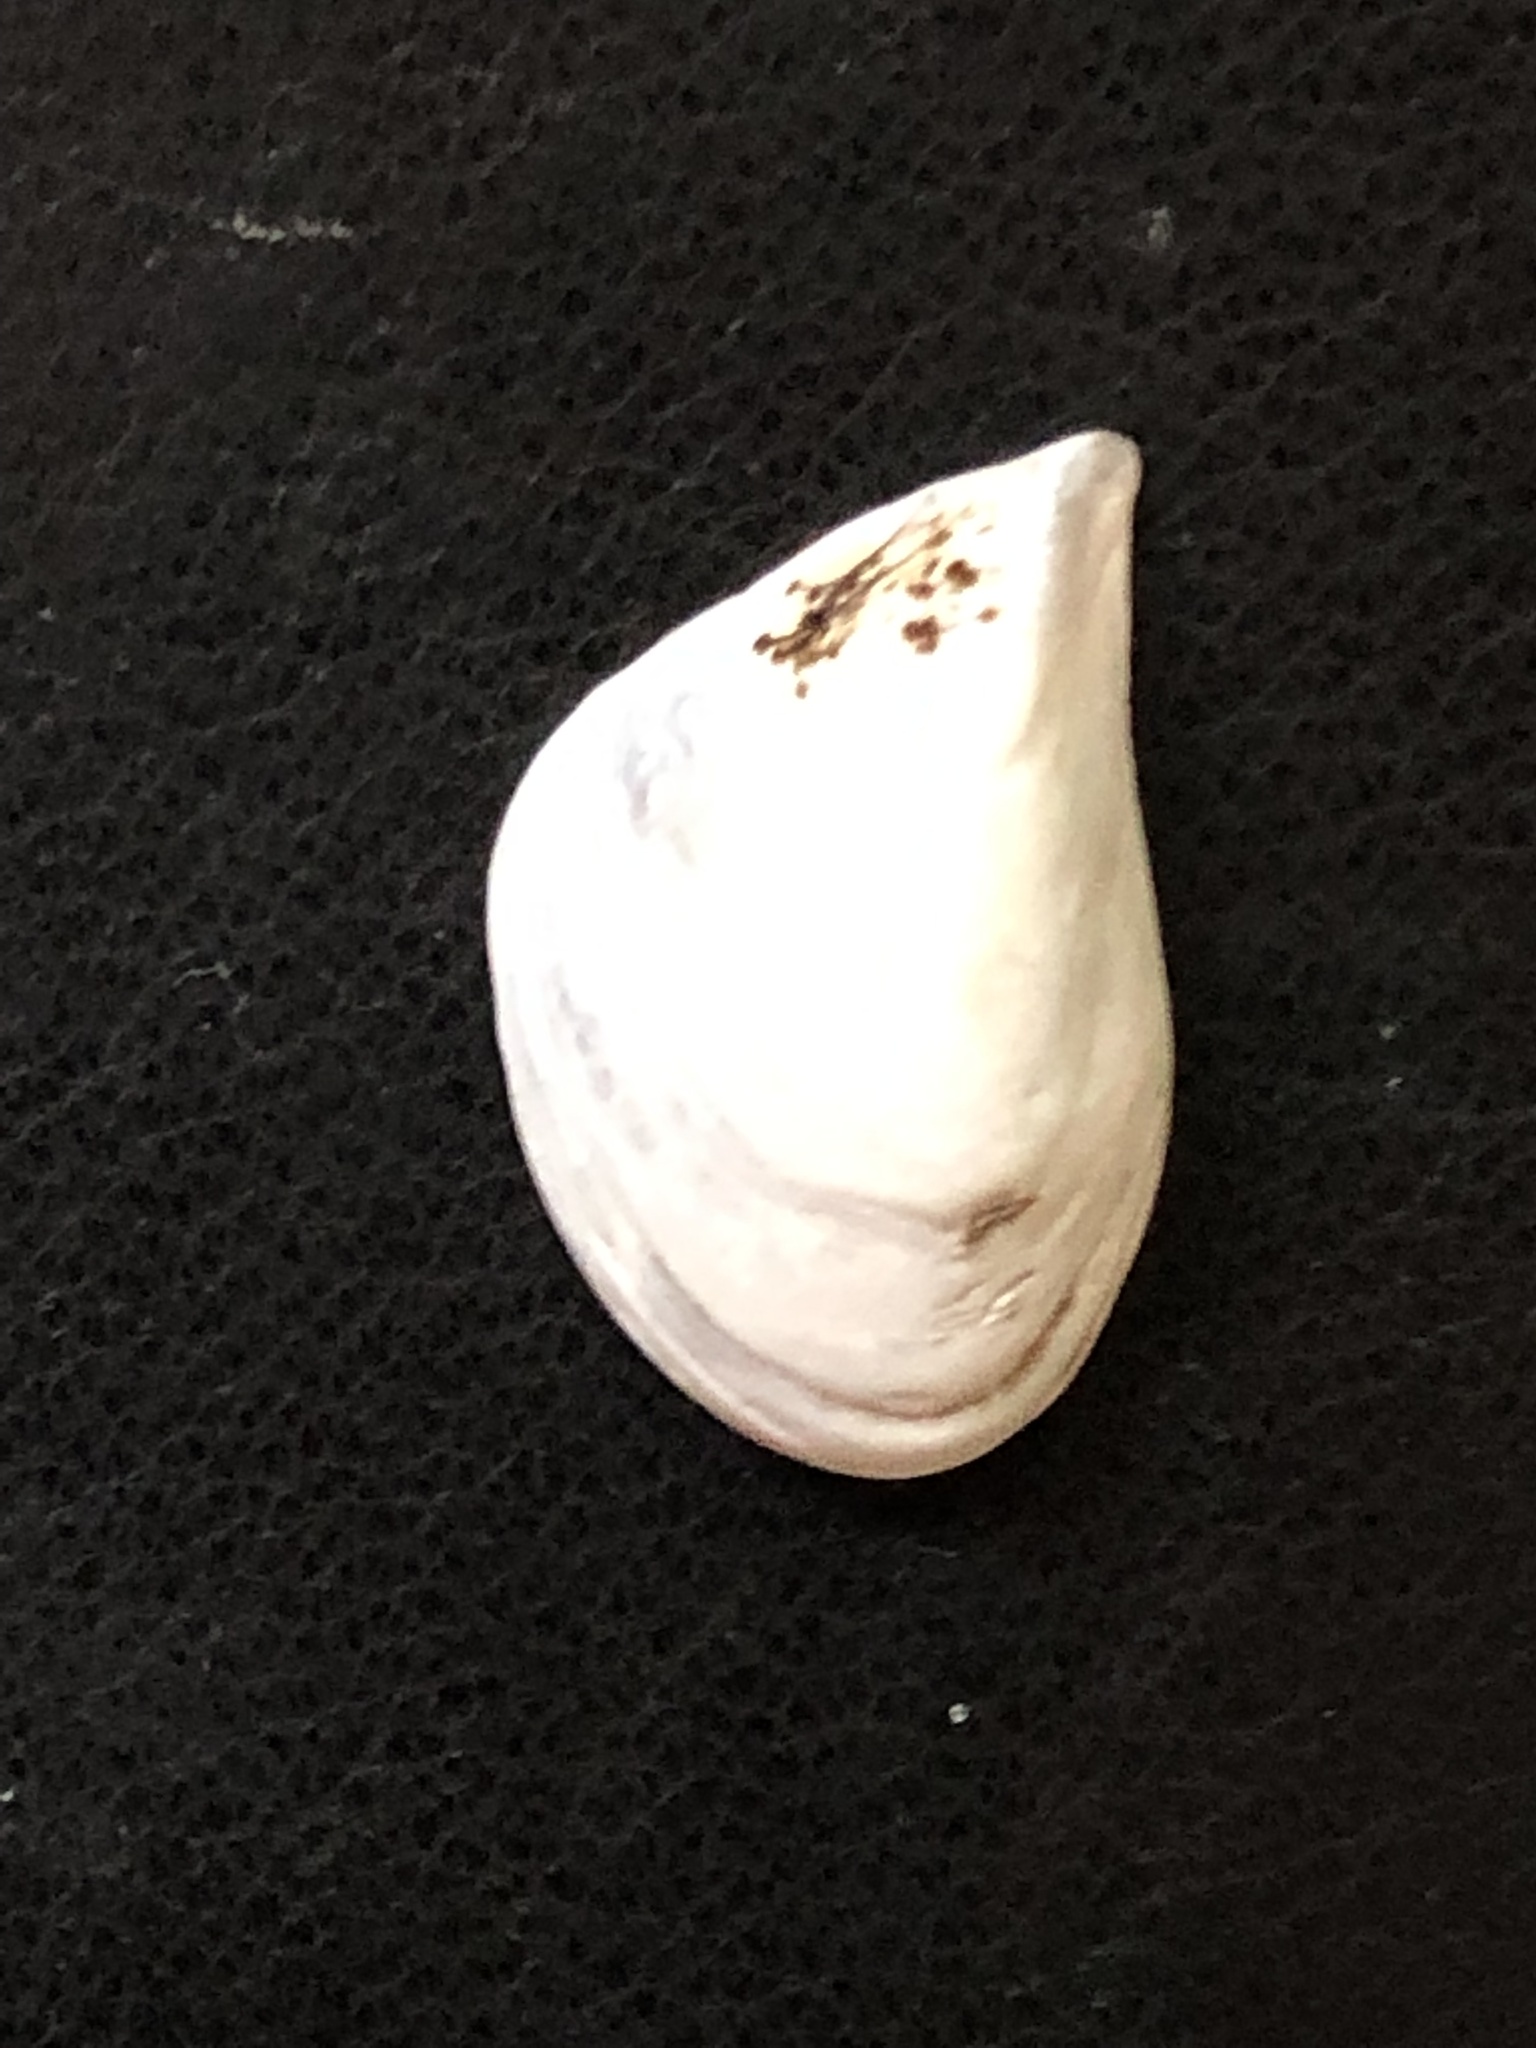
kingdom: Animalia
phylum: Mollusca
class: Bivalvia
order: Myida
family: Dreissenidae
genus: Dreissena
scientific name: Dreissena bugensis
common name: Quagga mussel
